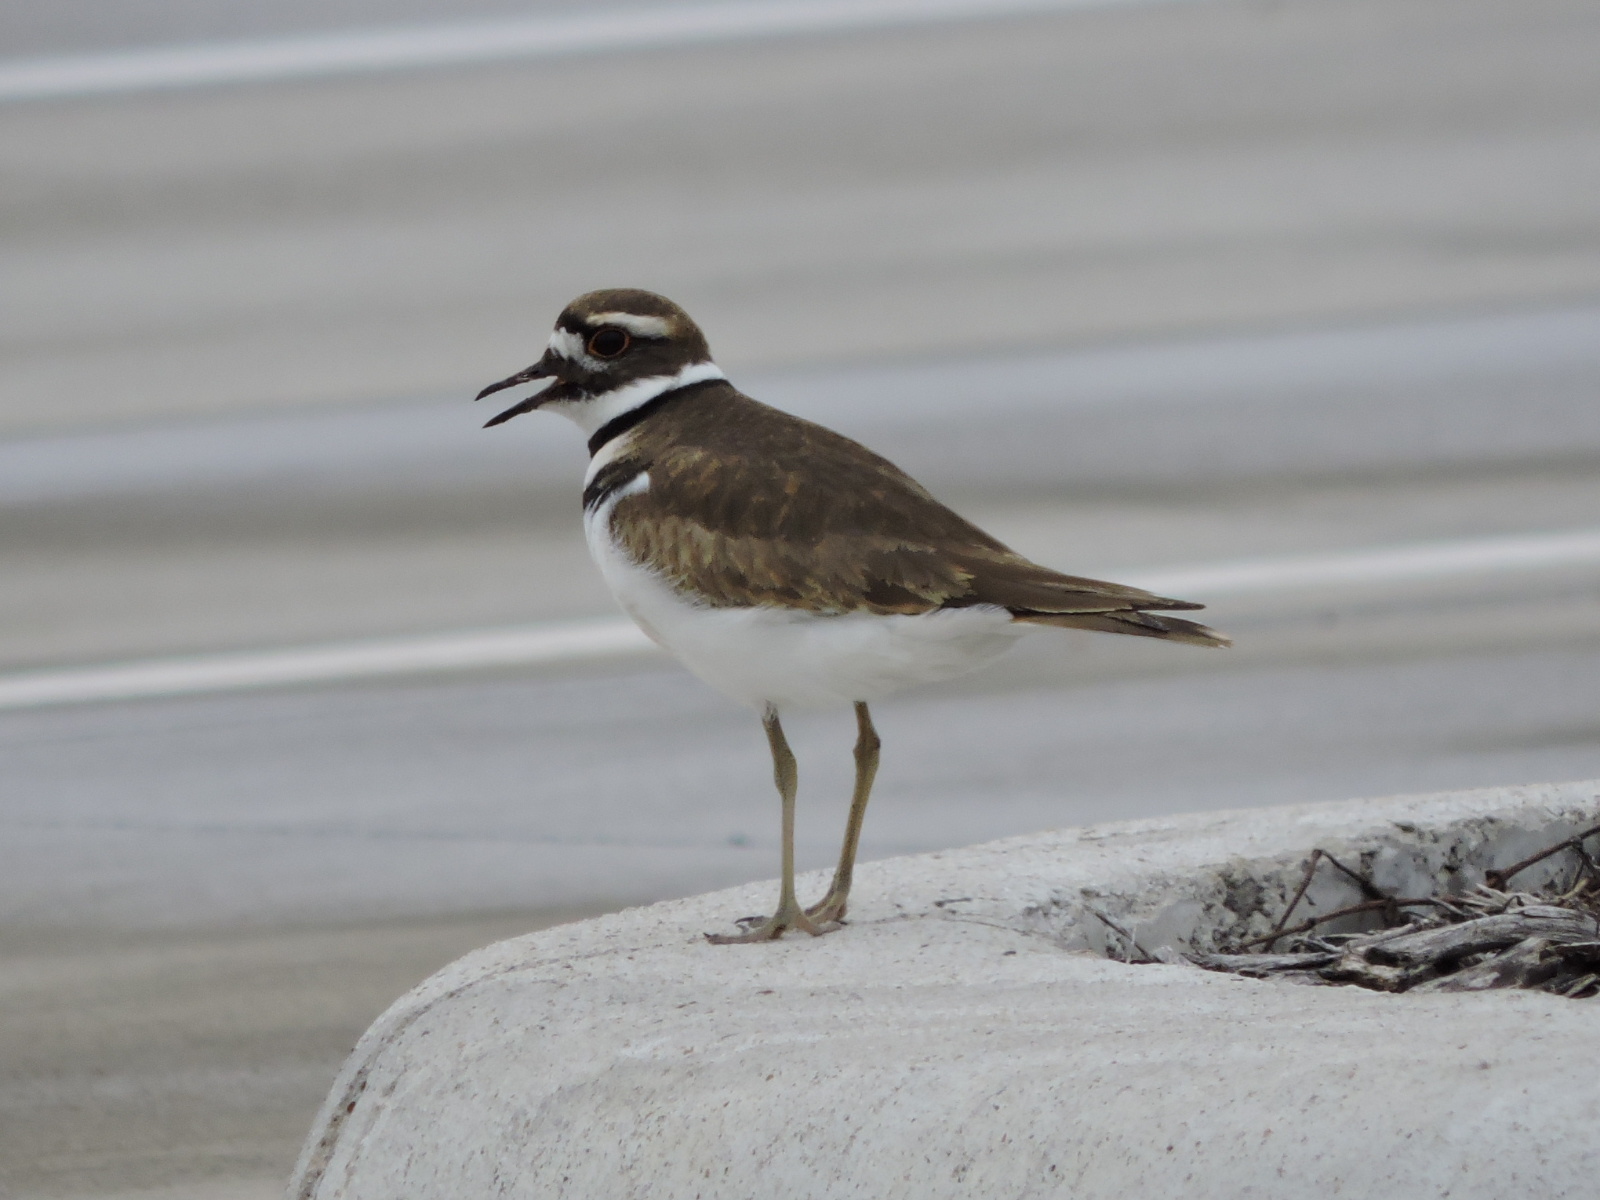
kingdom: Animalia
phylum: Chordata
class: Aves
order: Charadriiformes
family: Charadriidae
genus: Charadrius
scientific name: Charadrius vociferus
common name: Killdeer
